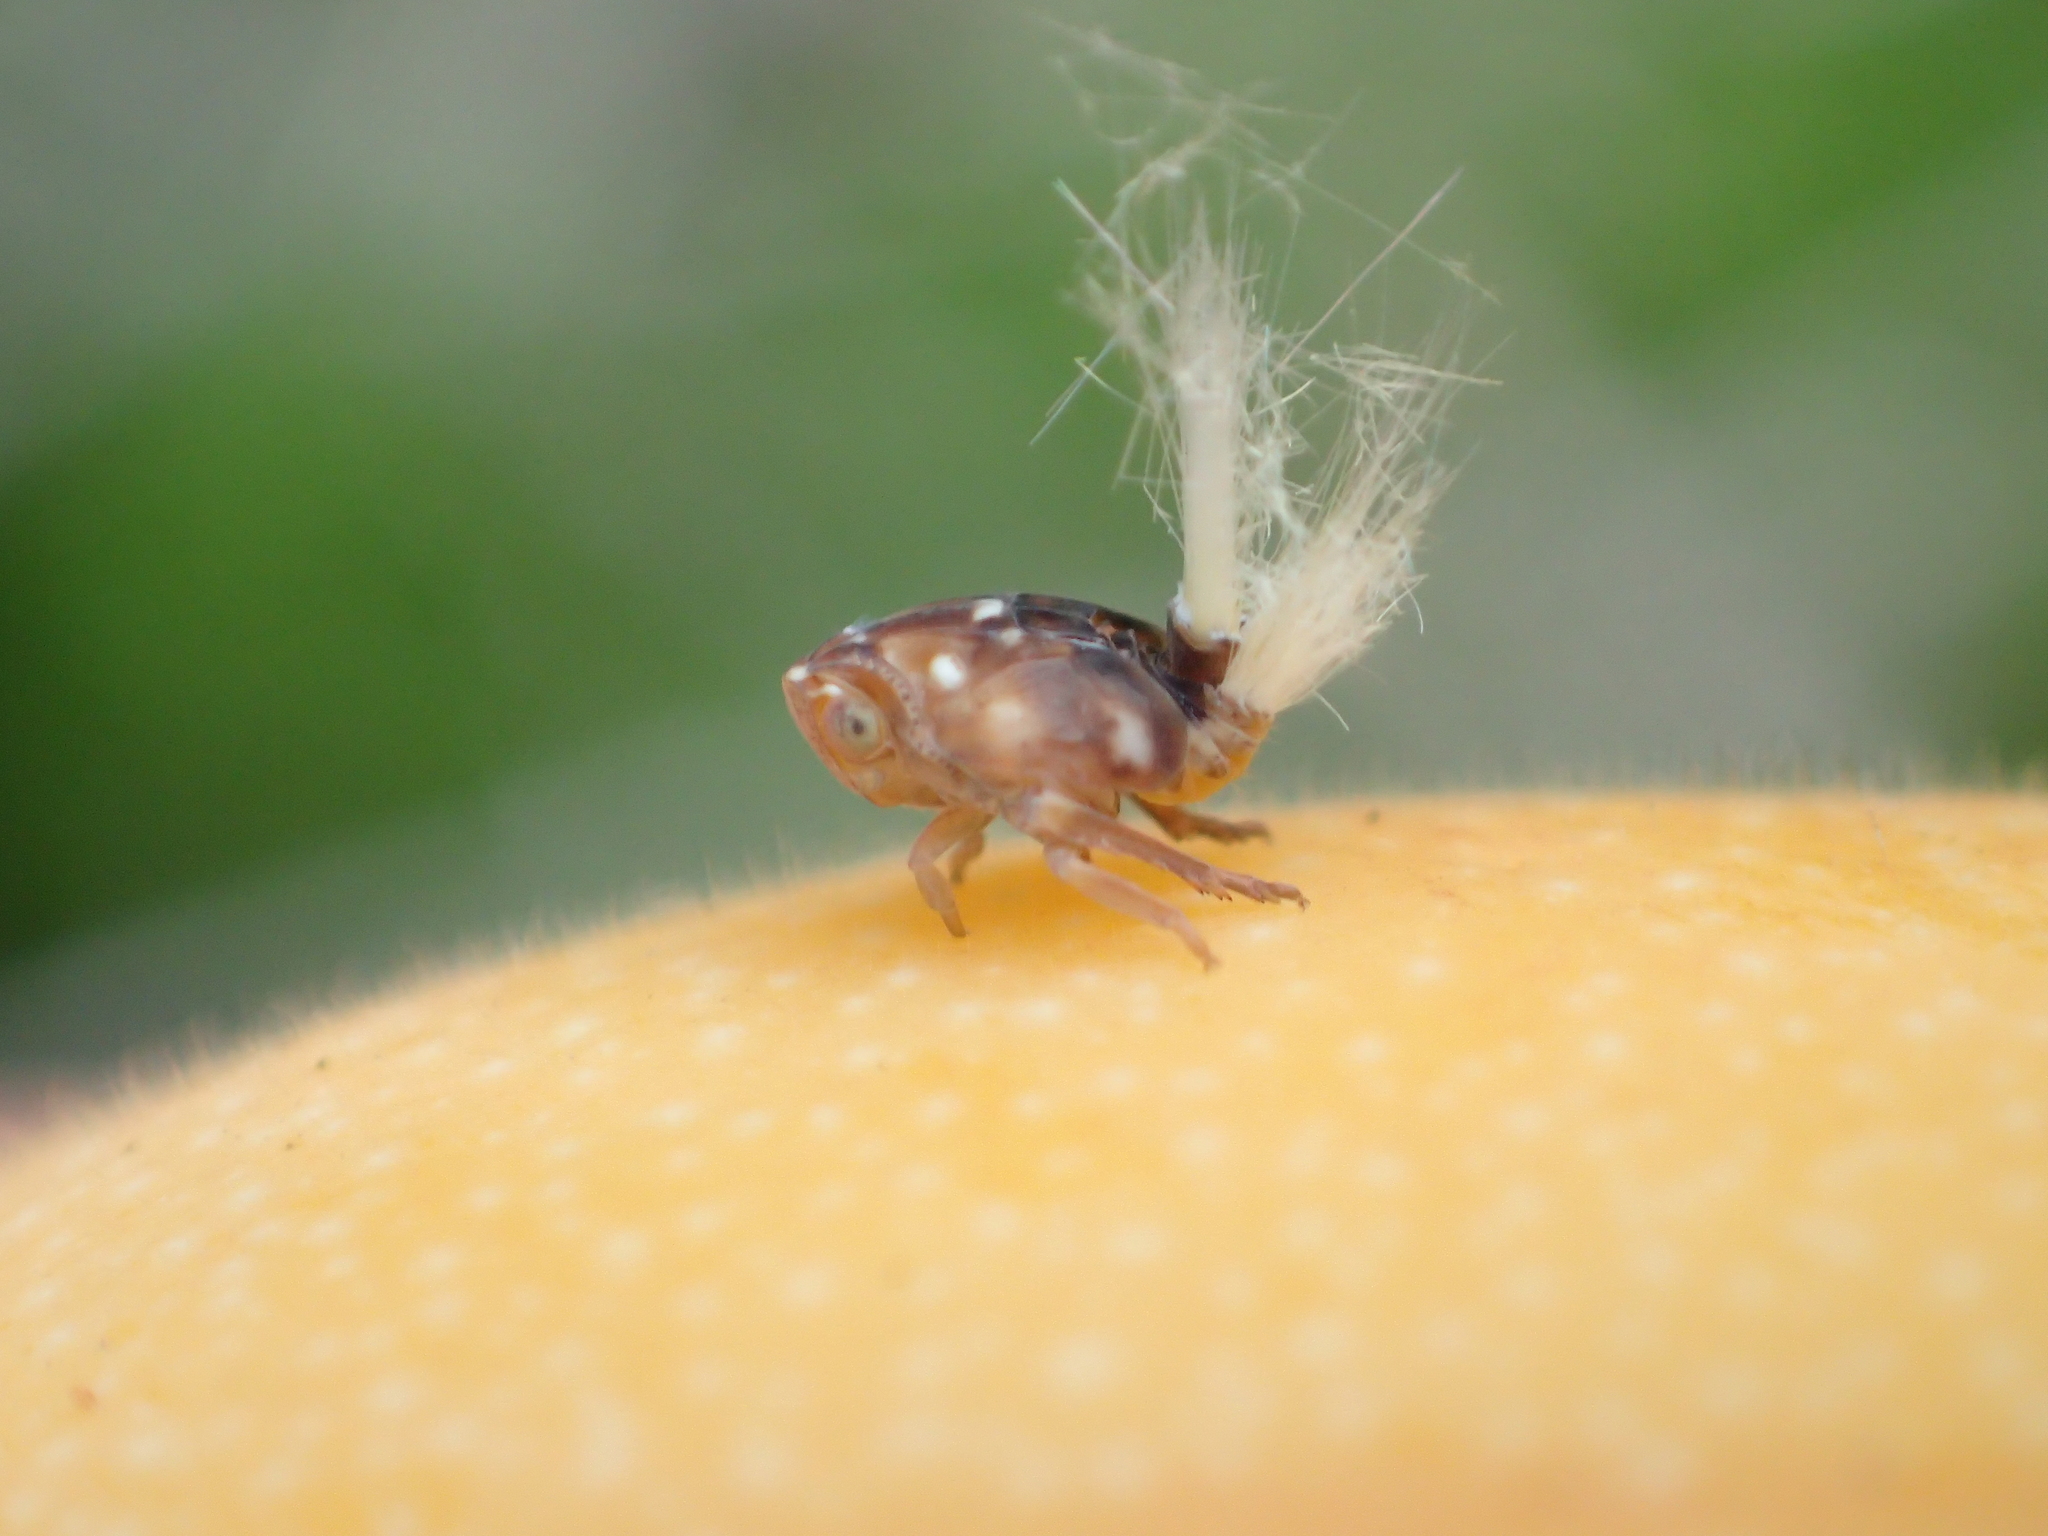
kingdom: Animalia
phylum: Arthropoda
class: Insecta
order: Hemiptera
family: Ricaniidae
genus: Scolypopa
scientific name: Scolypopa australis
